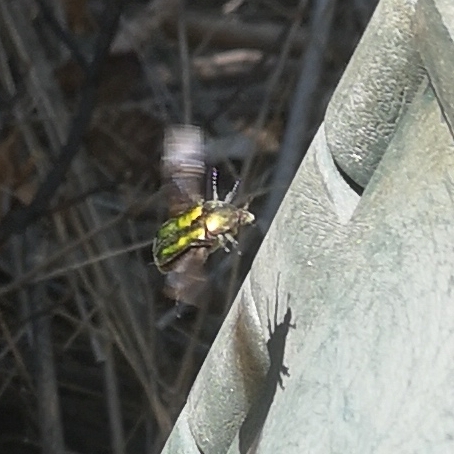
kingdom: Animalia
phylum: Arthropoda
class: Insecta
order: Coleoptera
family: Scarabaeidae
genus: Protaetia
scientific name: Protaetia cuprea
